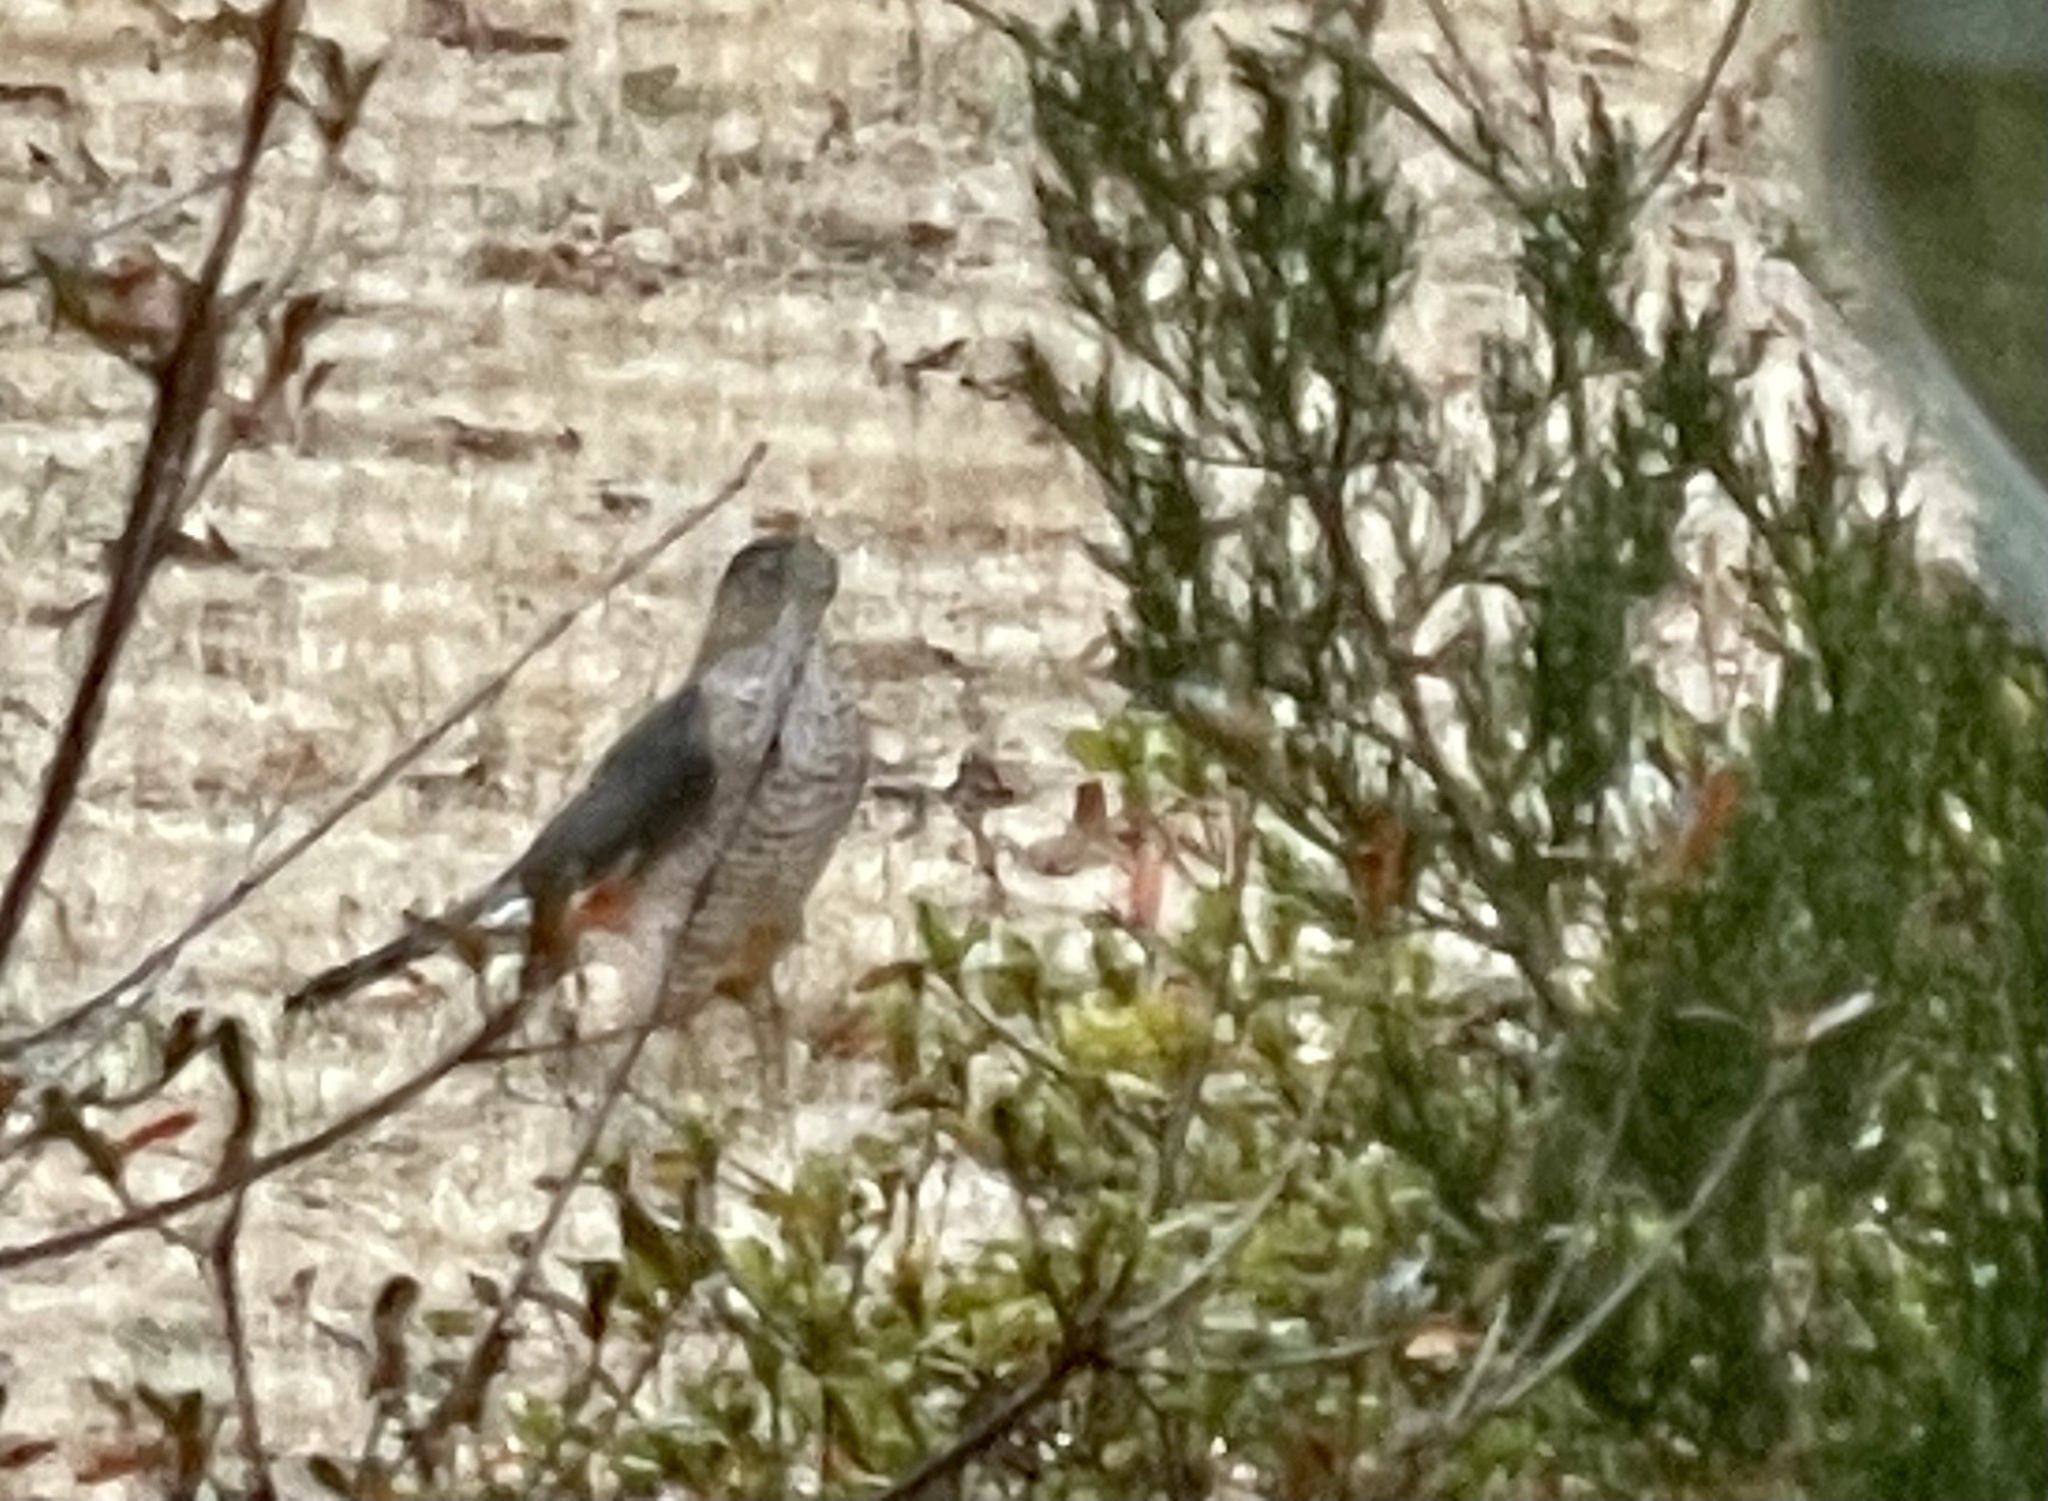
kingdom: Animalia
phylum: Chordata
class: Aves
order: Accipitriformes
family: Accipitridae
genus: Accipiter
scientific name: Accipiter cooperii
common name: Cooper's hawk
